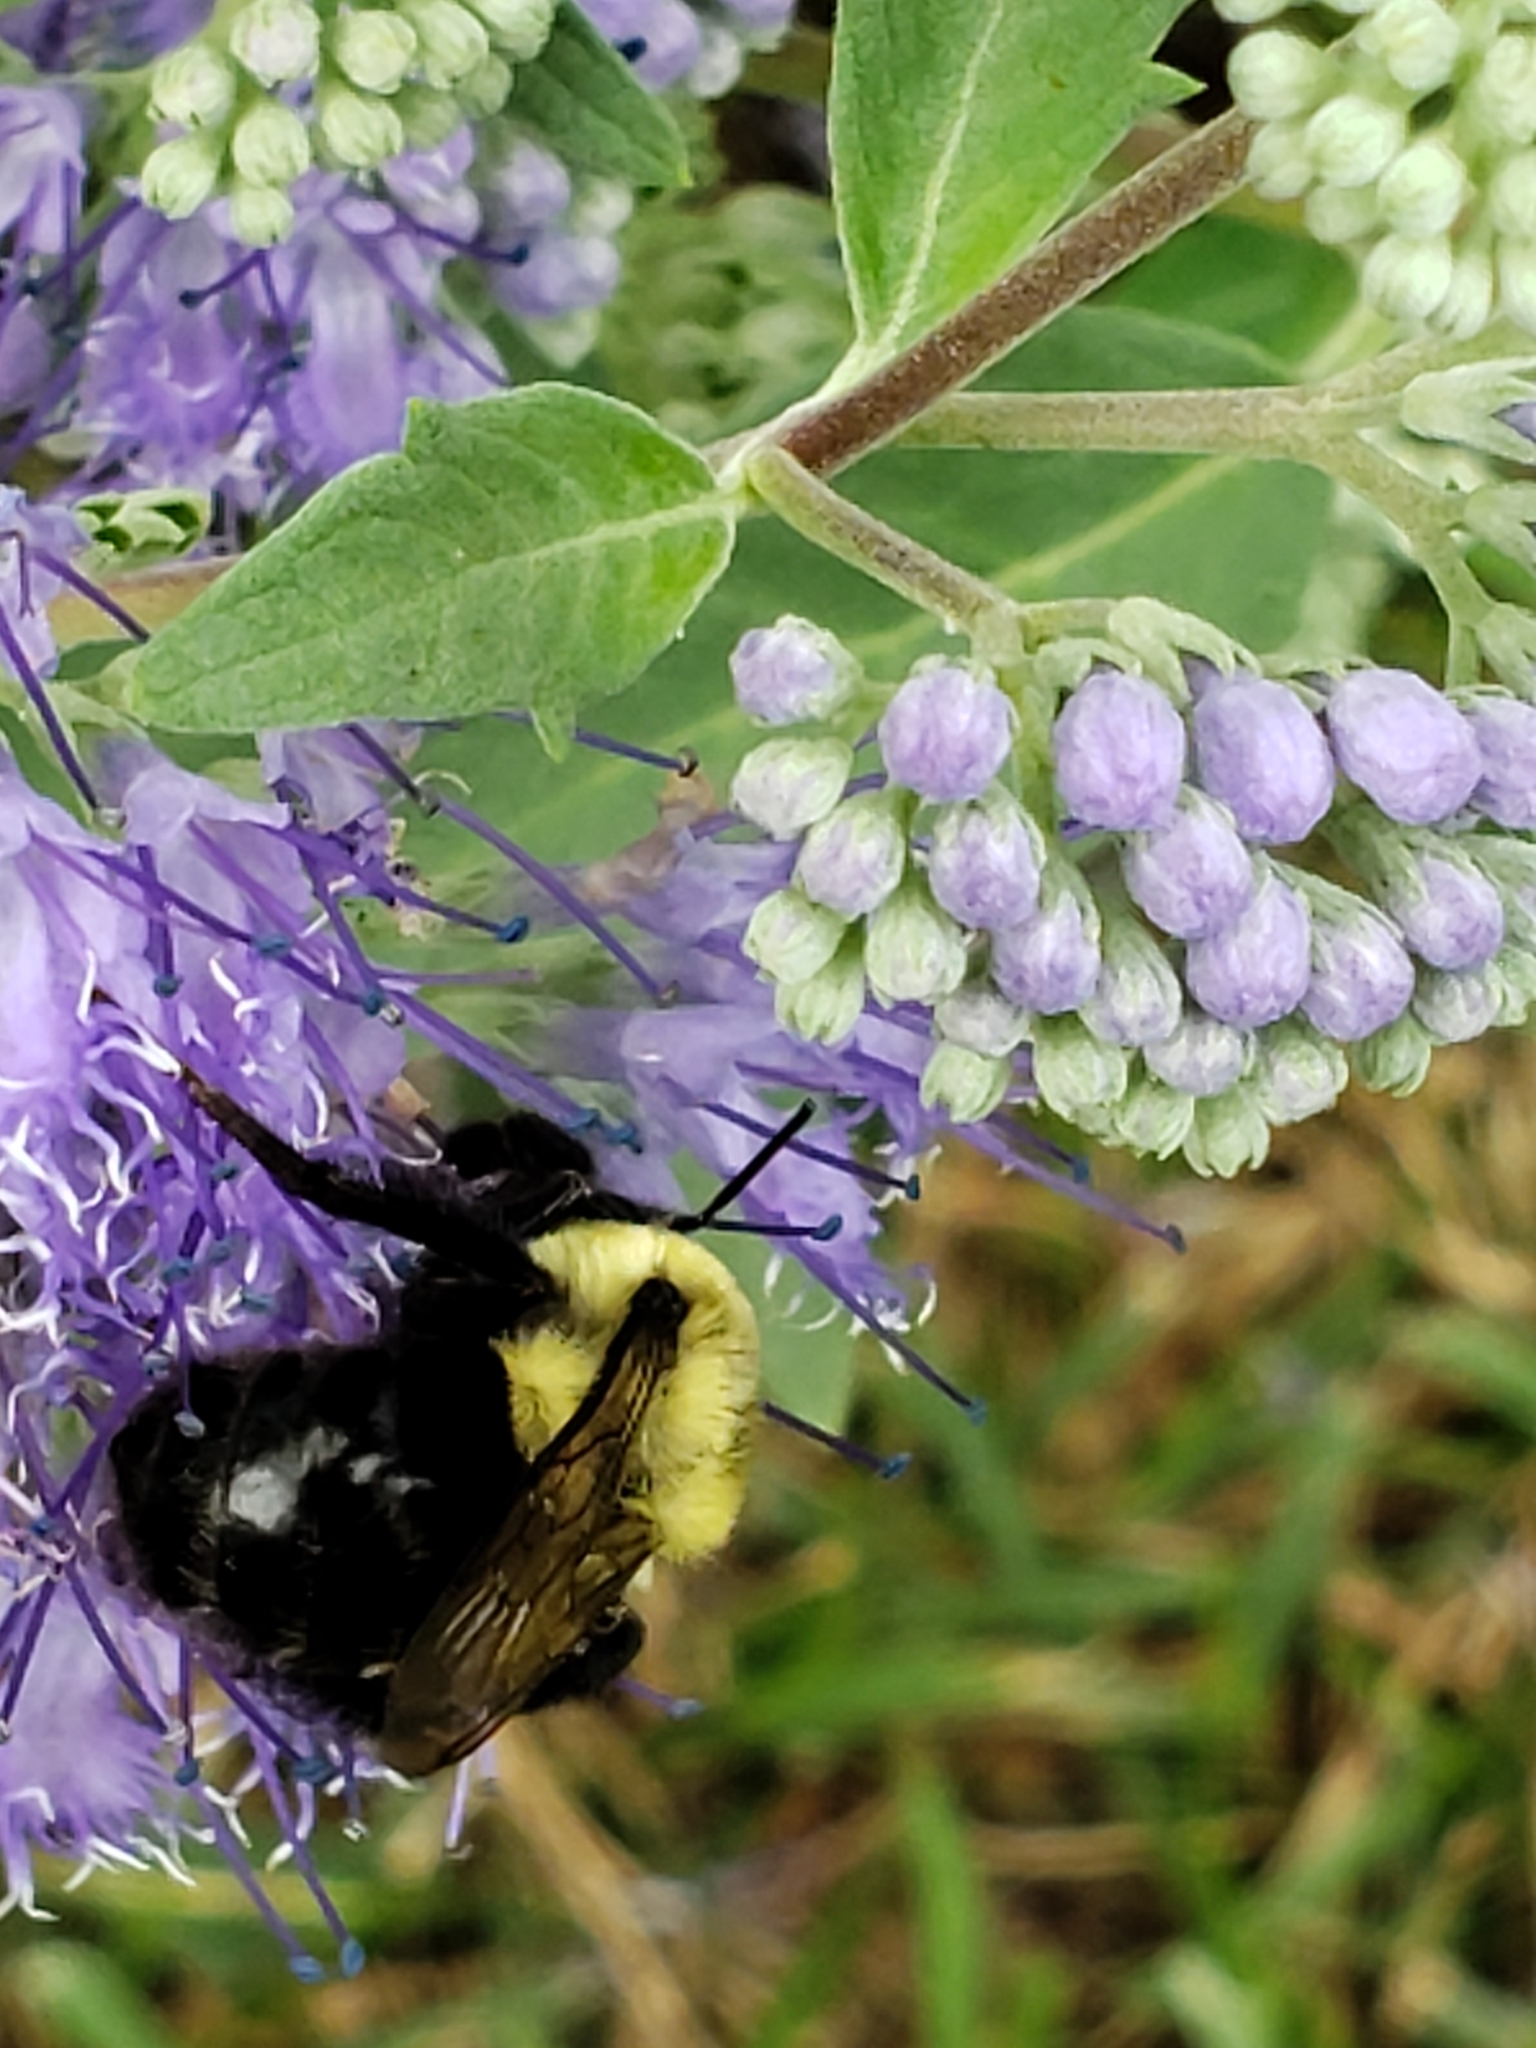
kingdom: Animalia
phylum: Arthropoda
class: Insecta
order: Hymenoptera
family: Apidae
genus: Bombus
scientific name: Bombus impatiens
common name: Common eastern bumble bee
